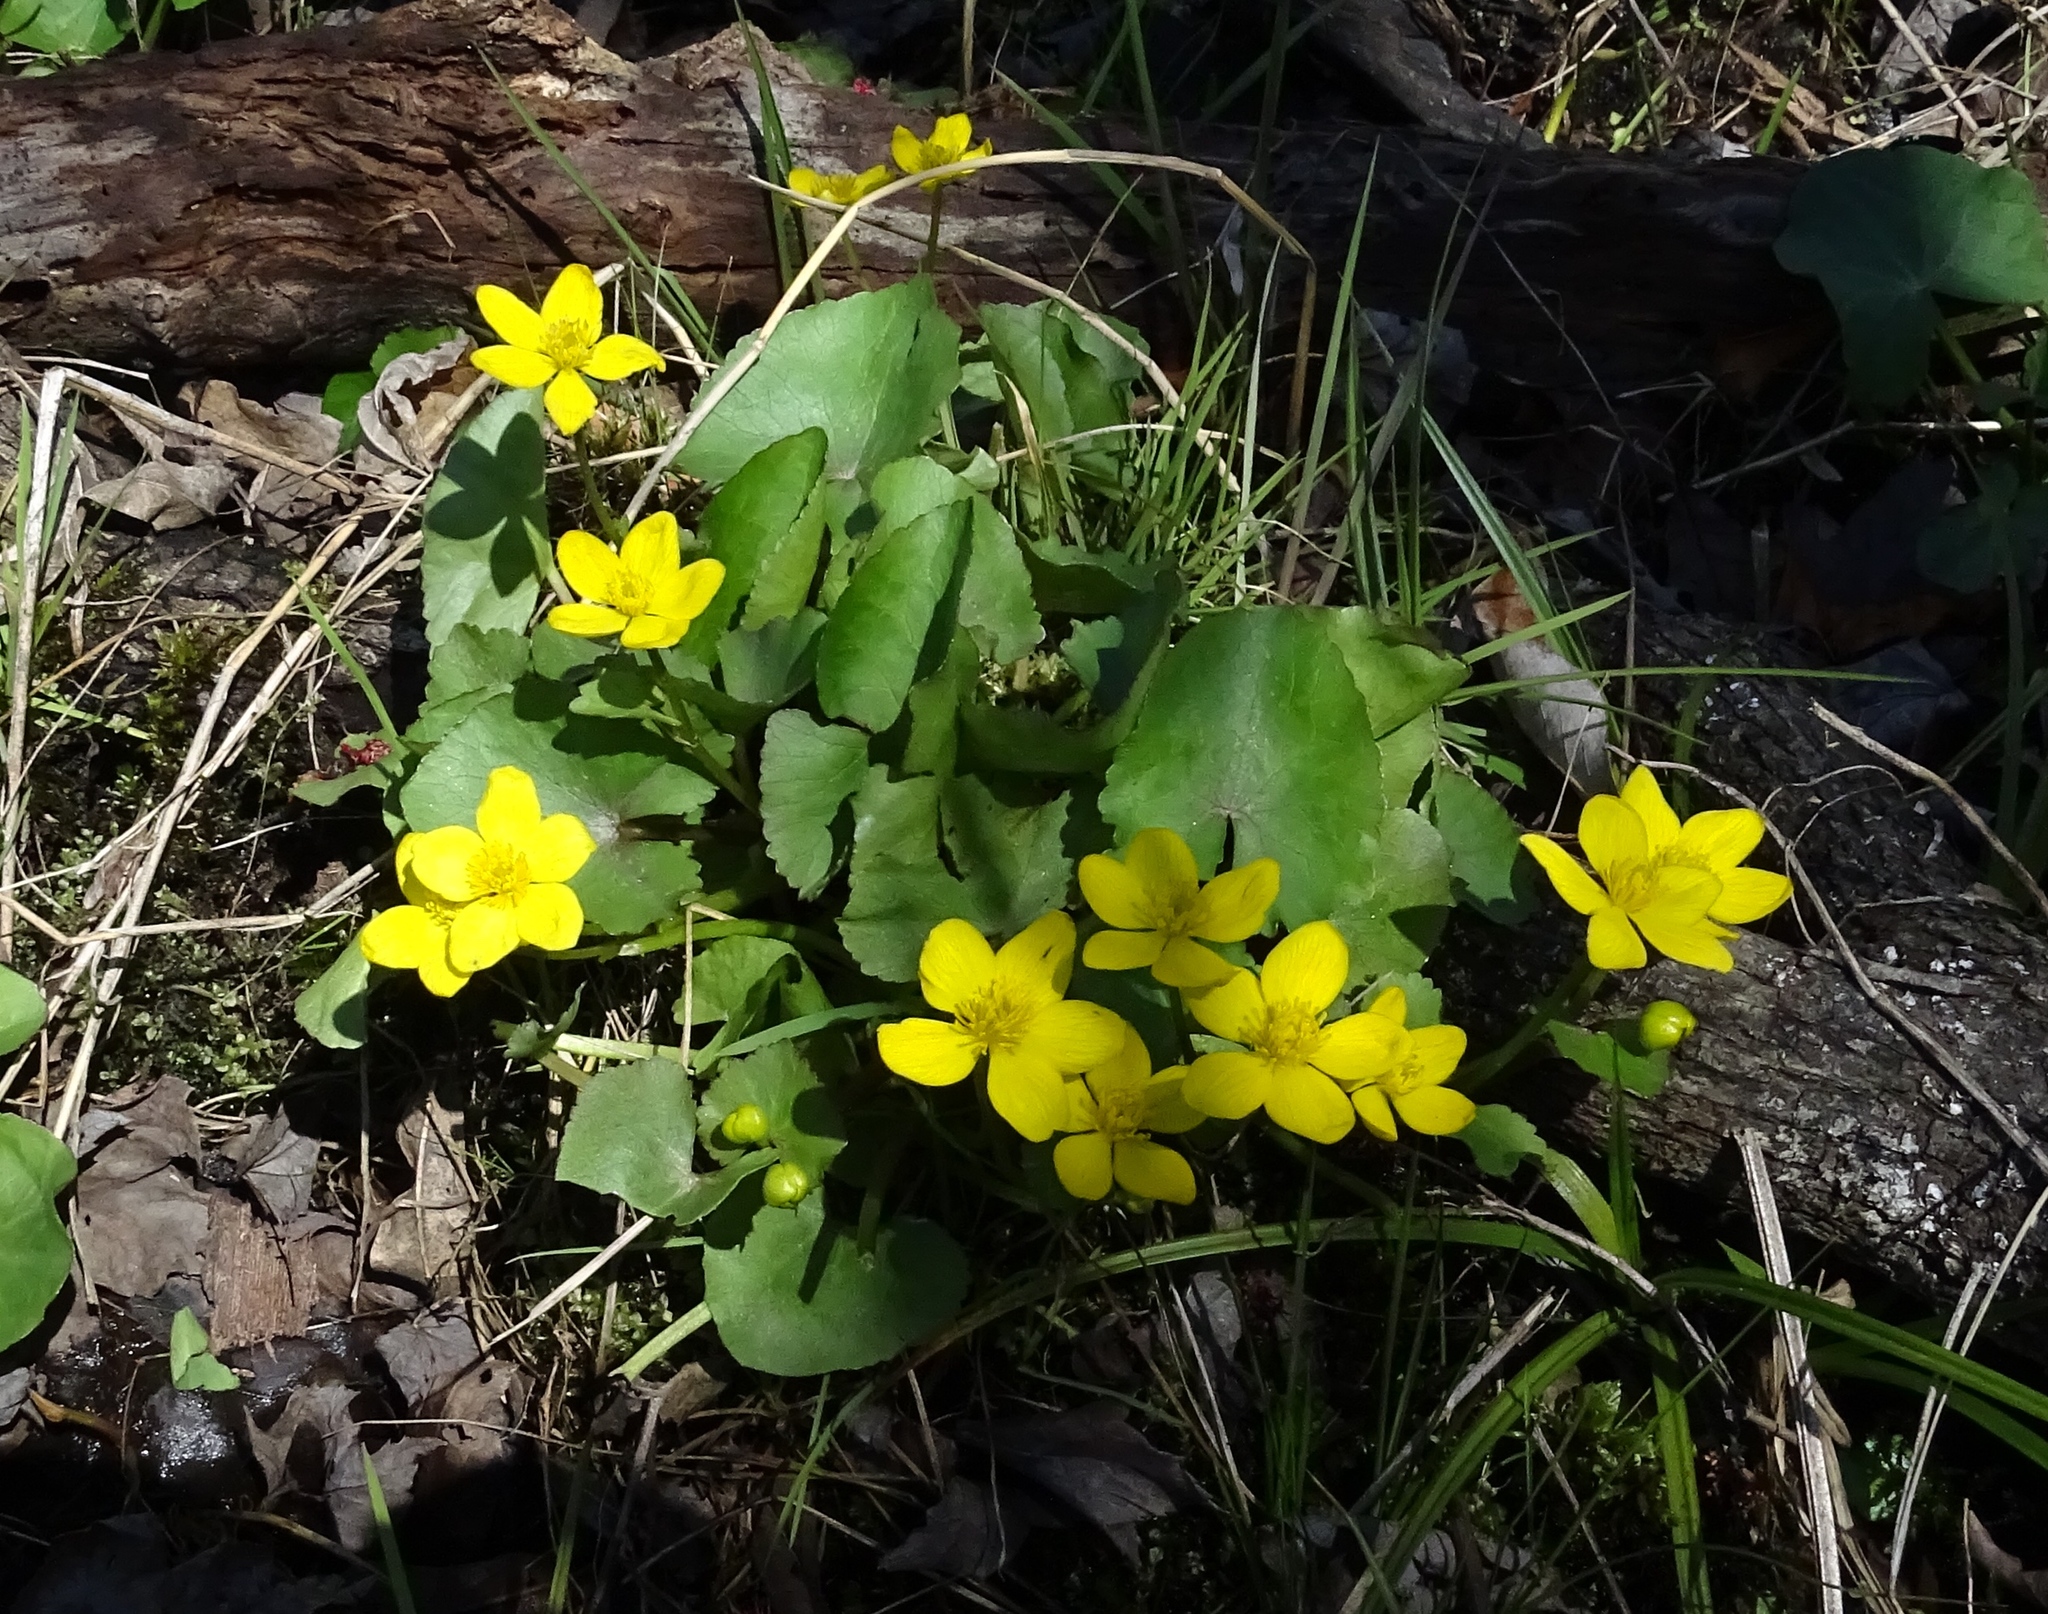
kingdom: Plantae
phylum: Tracheophyta
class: Magnoliopsida
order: Ranunculales
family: Ranunculaceae
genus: Caltha
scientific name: Caltha palustris
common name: Marsh marigold
